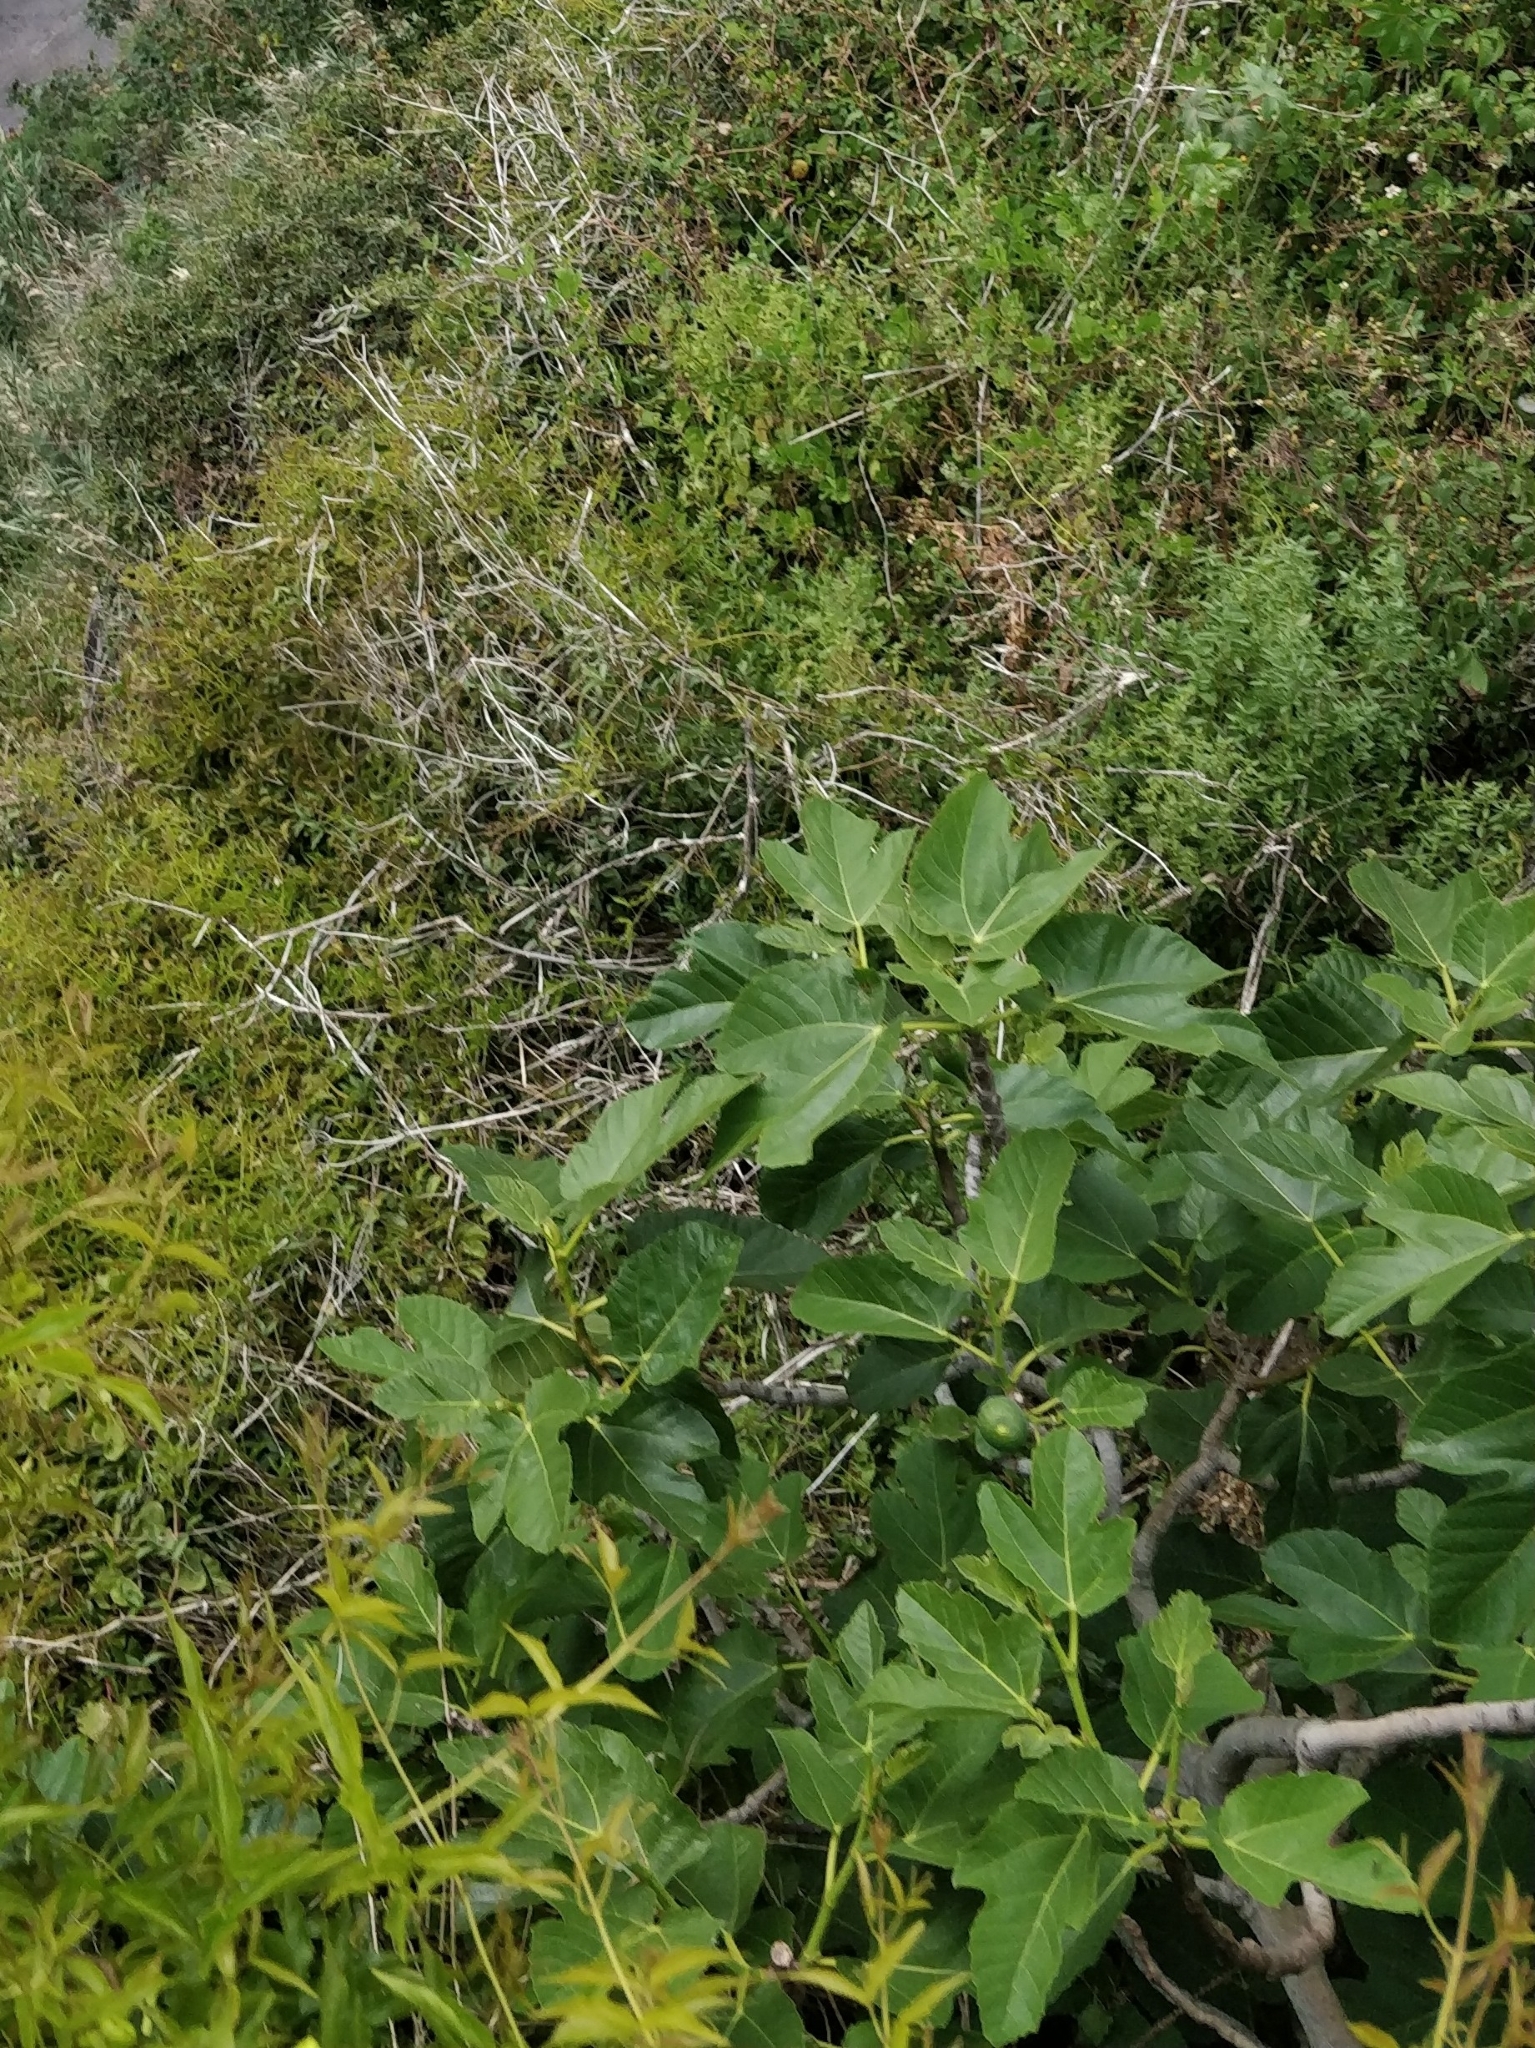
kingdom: Plantae
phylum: Tracheophyta
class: Magnoliopsida
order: Rosales
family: Moraceae
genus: Ficus
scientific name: Ficus carica
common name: Fig
